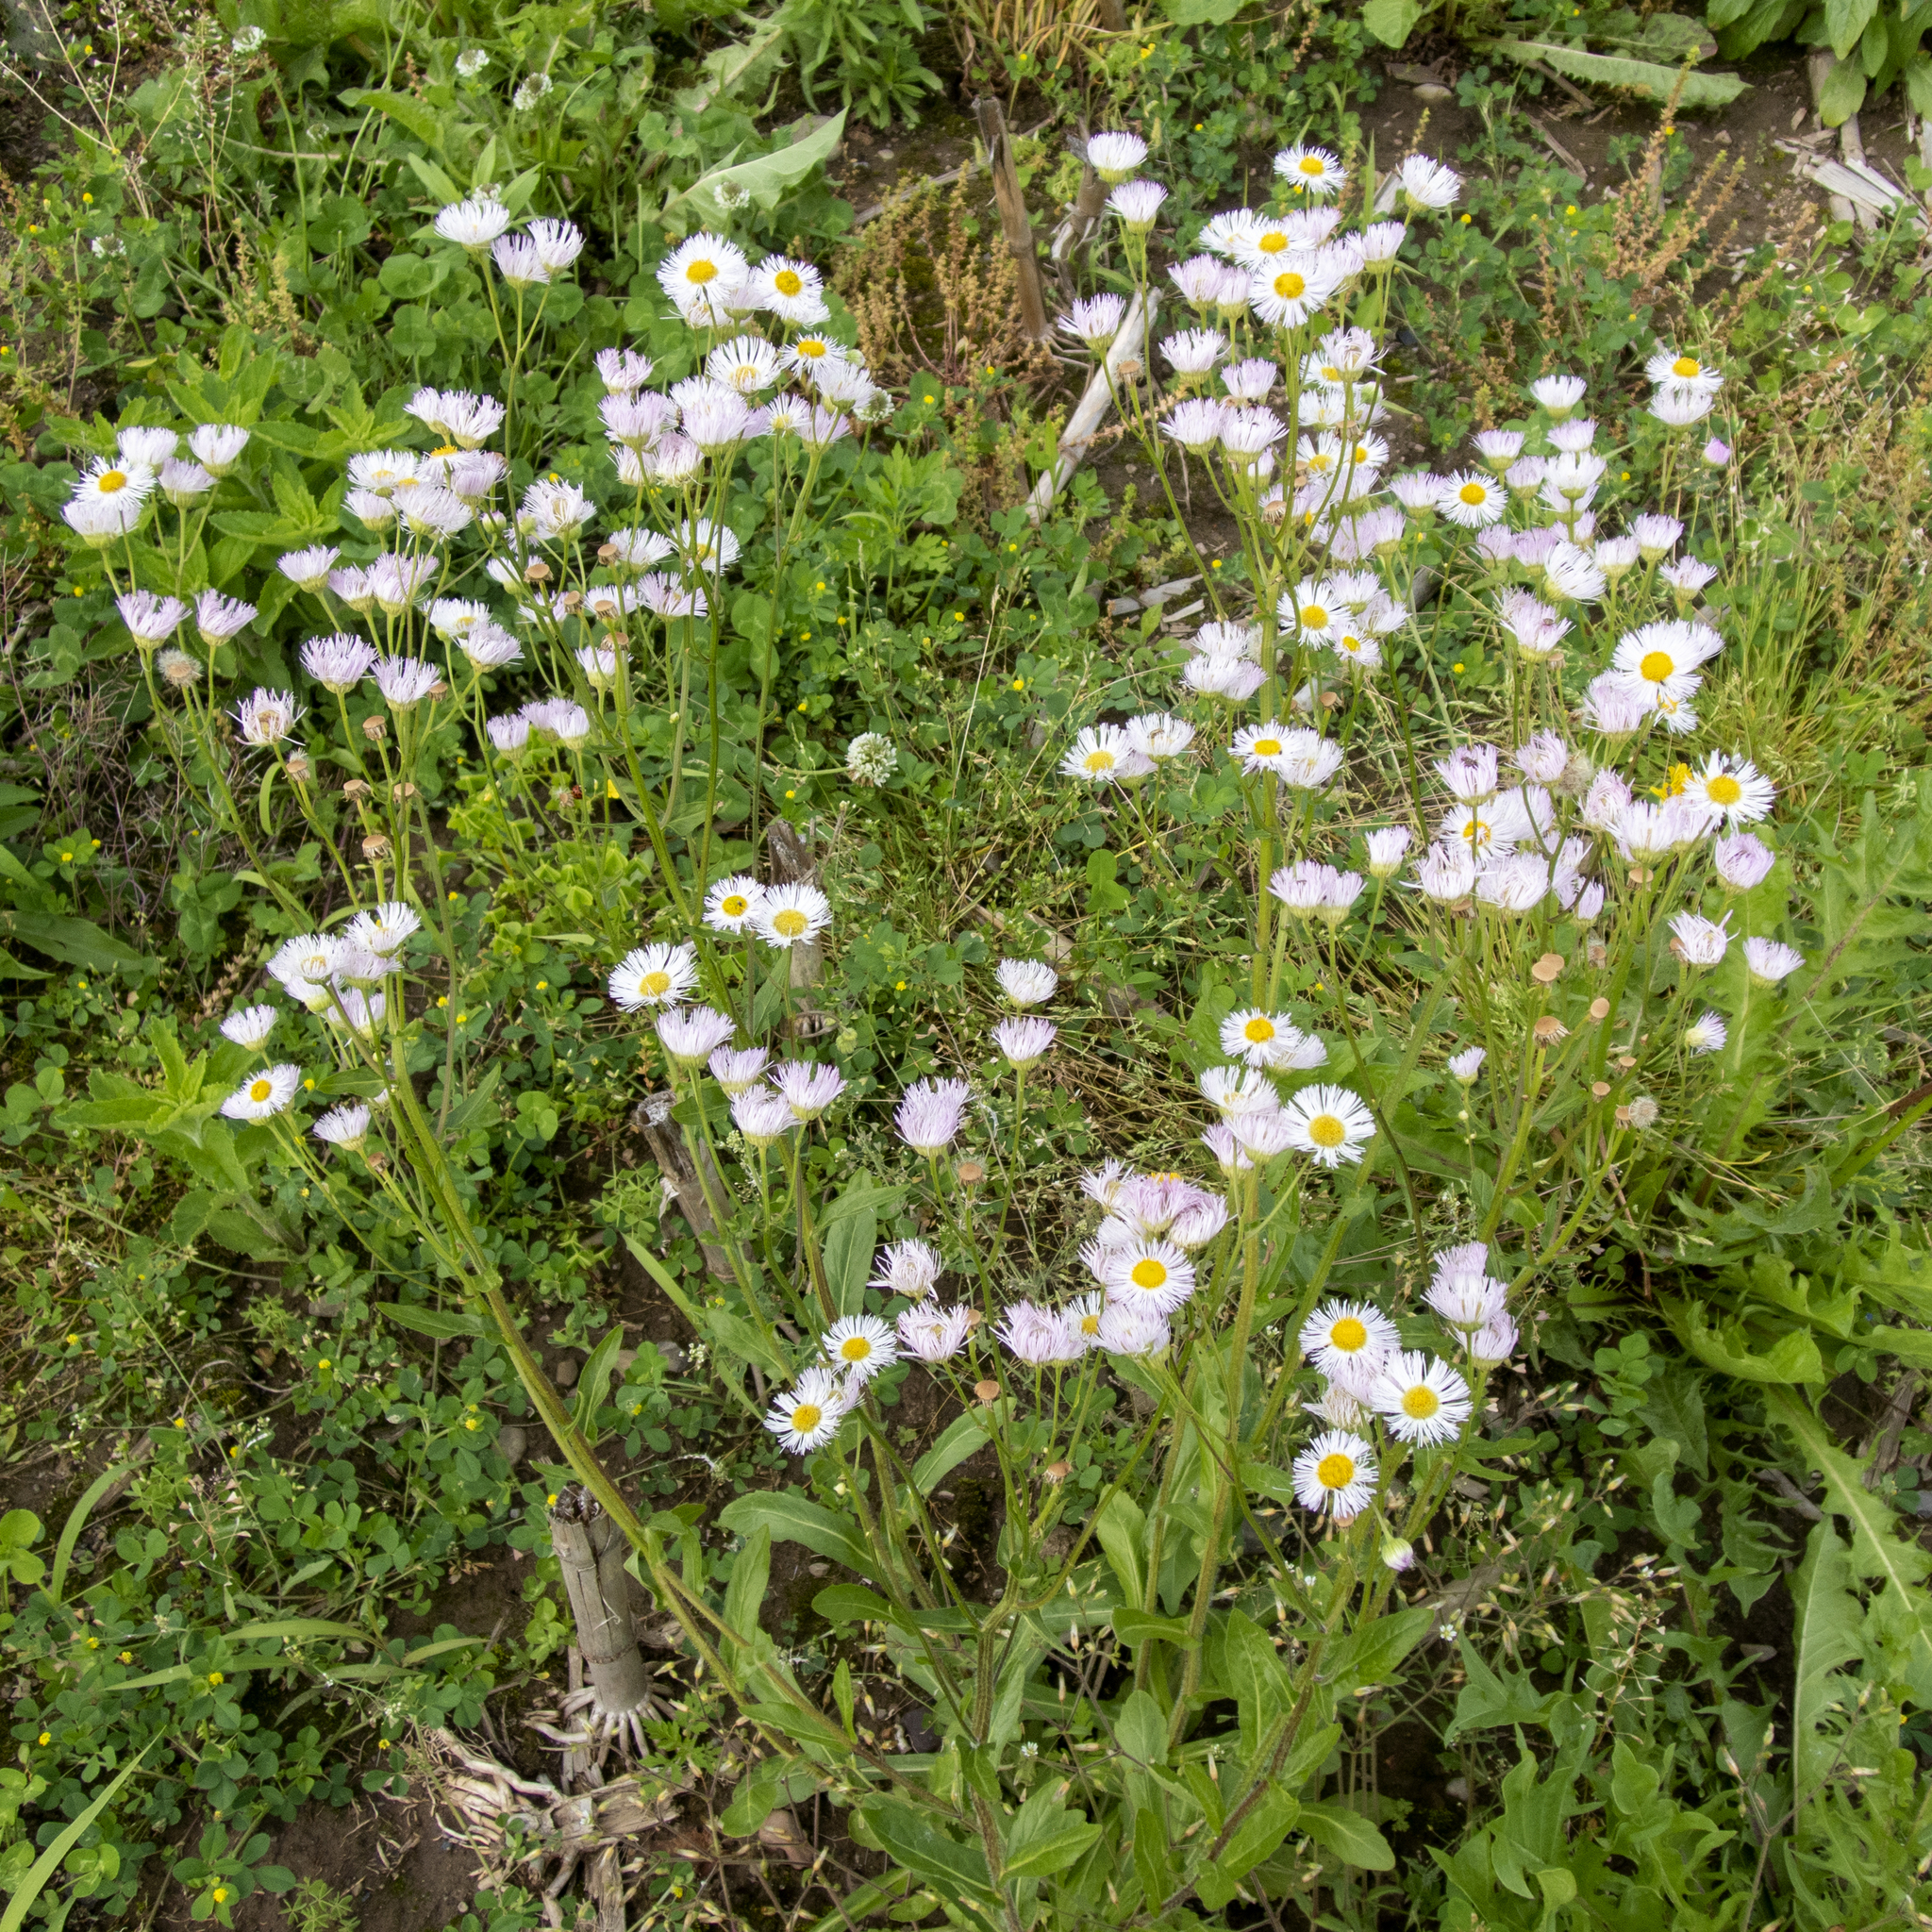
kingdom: Plantae
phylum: Tracheophyta
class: Magnoliopsida
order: Asterales
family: Asteraceae
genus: Erigeron
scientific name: Erigeron philadelphicus
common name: Robin's-plantain
